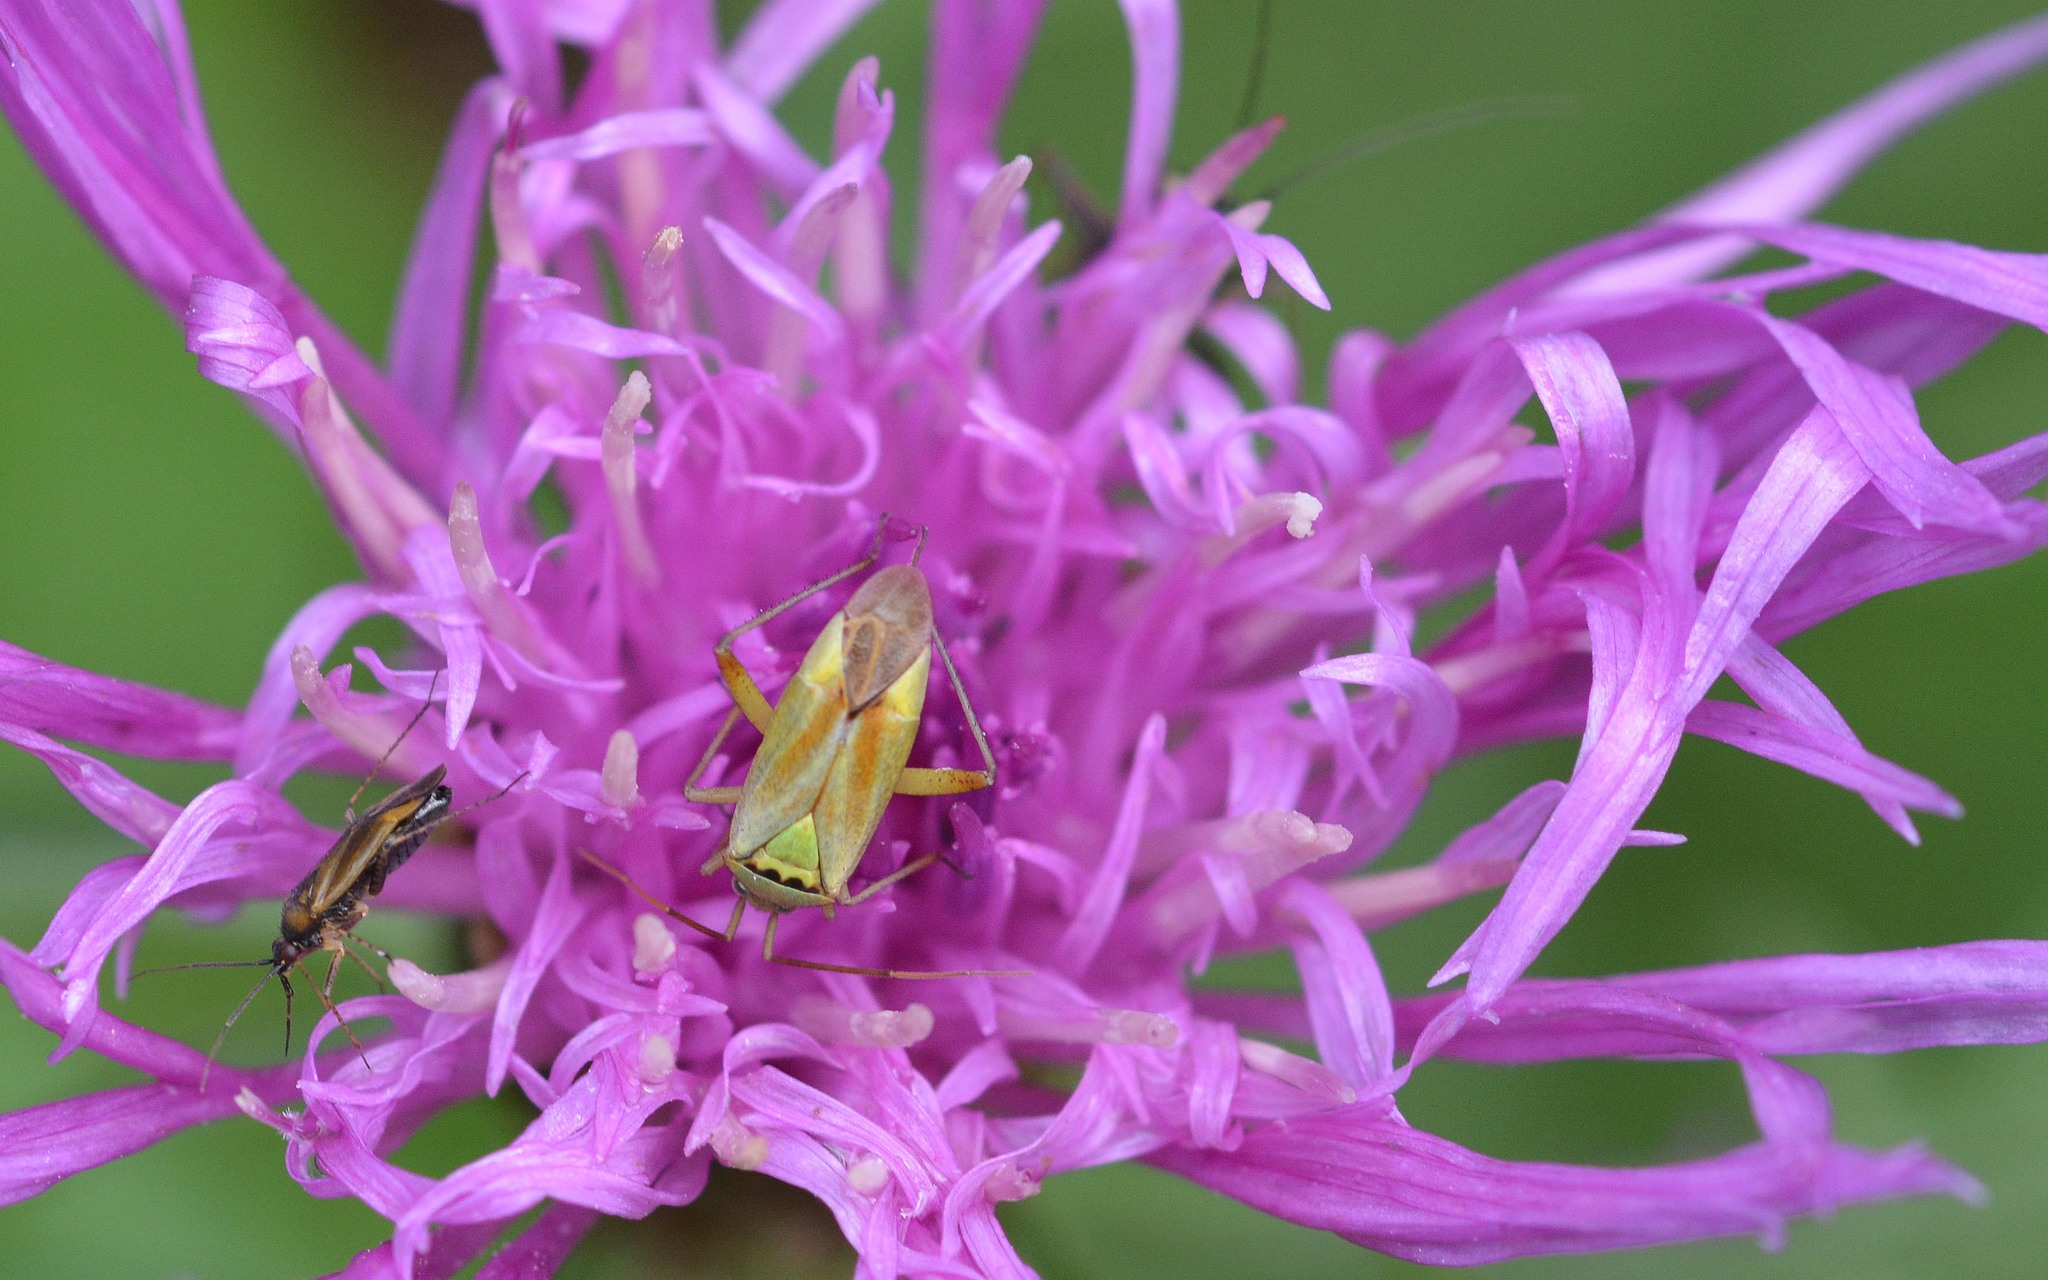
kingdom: Animalia
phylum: Arthropoda
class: Insecta
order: Hemiptera
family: Miridae
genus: Closterotomus
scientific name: Closterotomus norvegicus
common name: Plant bug
